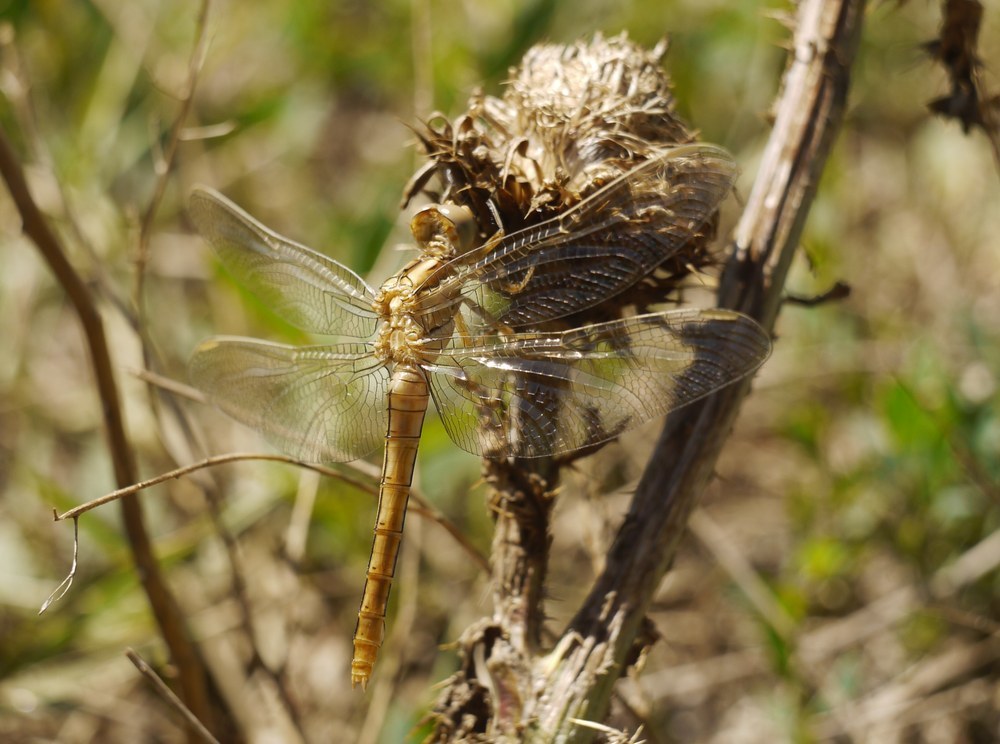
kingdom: Animalia
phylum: Arthropoda
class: Insecta
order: Odonata
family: Libellulidae
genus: Orthetrum
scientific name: Orthetrum brunneum
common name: Southern skimmer
